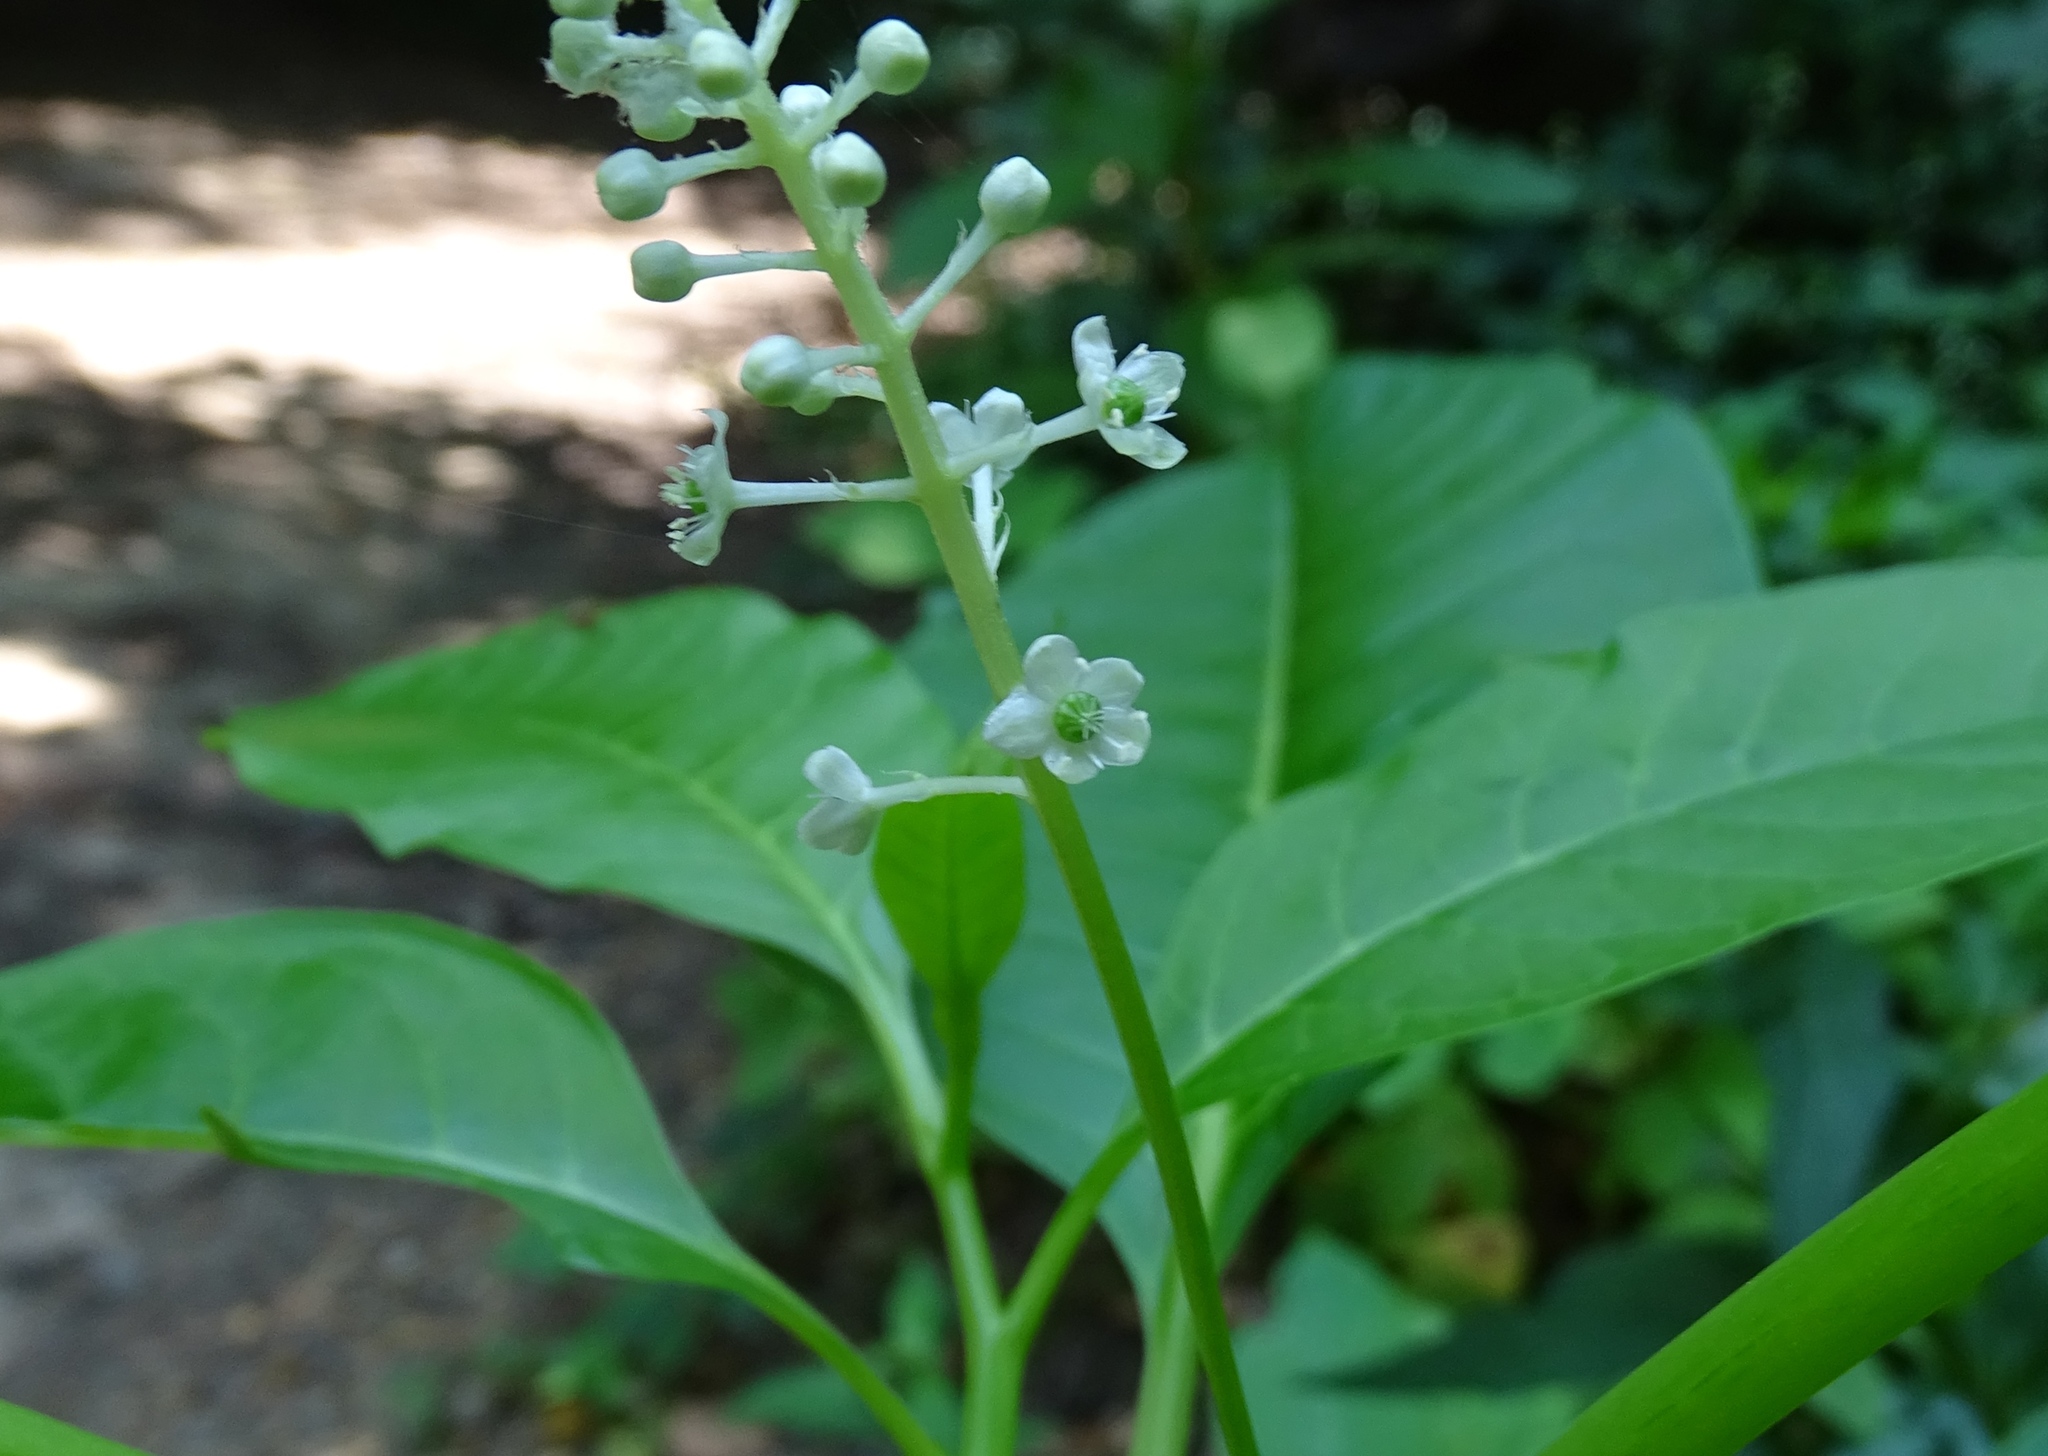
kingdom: Plantae
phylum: Tracheophyta
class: Magnoliopsida
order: Caryophyllales
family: Phytolaccaceae
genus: Phytolacca
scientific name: Phytolacca americana
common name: American pokeweed
